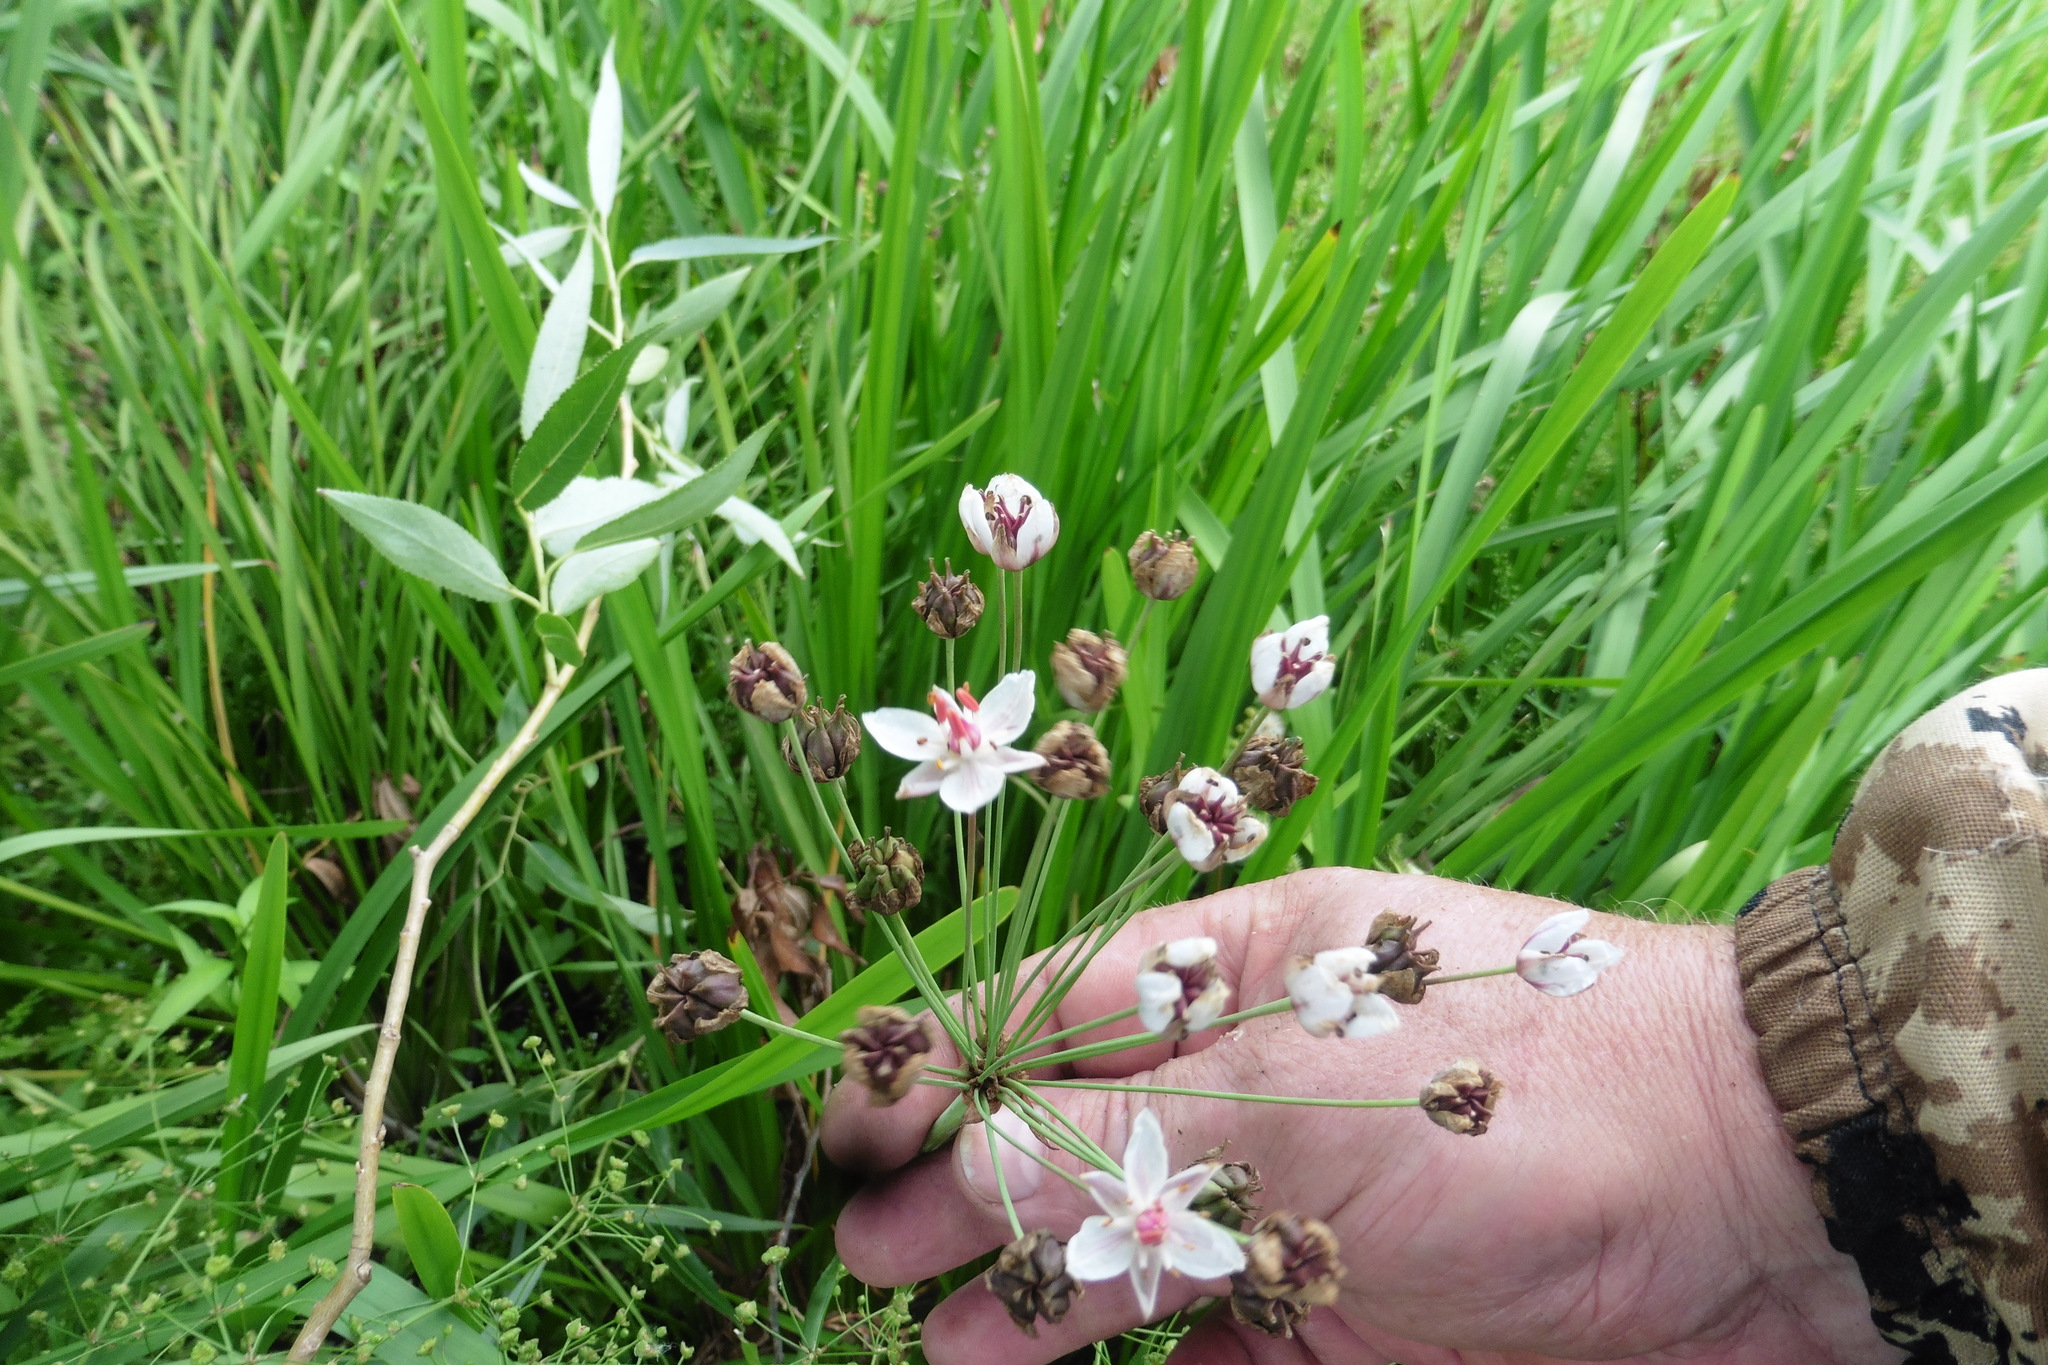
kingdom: Plantae
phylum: Tracheophyta
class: Liliopsida
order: Alismatales
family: Butomaceae
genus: Butomus
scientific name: Butomus umbellatus
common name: Flowering-rush
